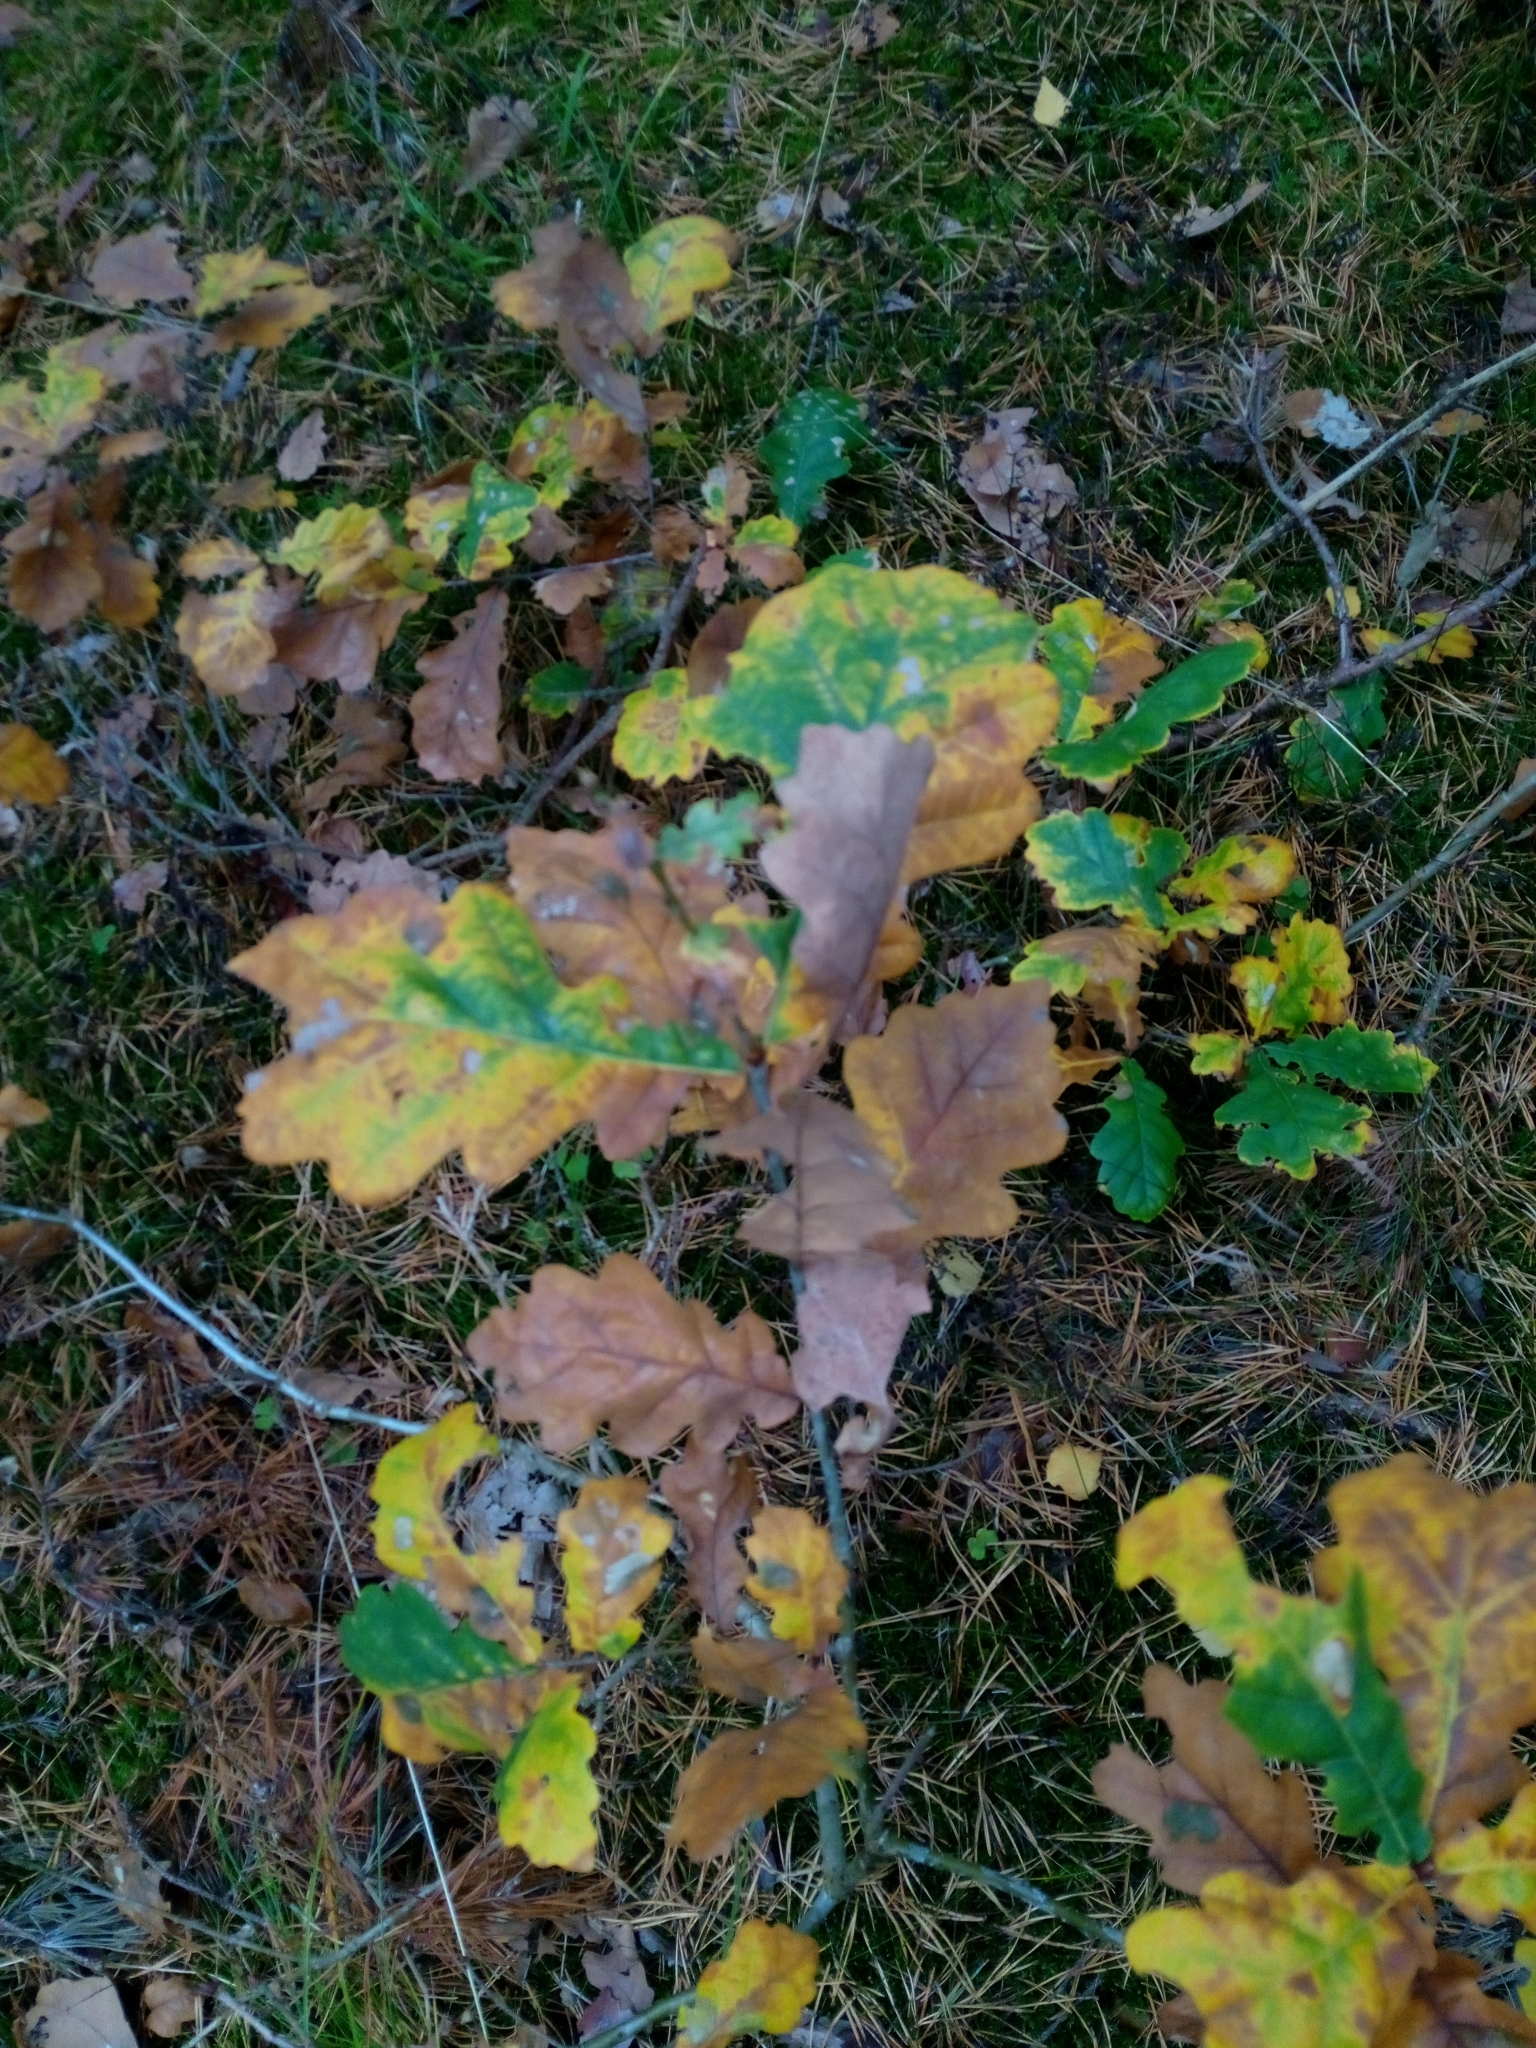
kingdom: Plantae
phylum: Tracheophyta
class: Magnoliopsida
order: Fagales
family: Fagaceae
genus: Quercus
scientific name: Quercus robur
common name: Pedunculate oak
